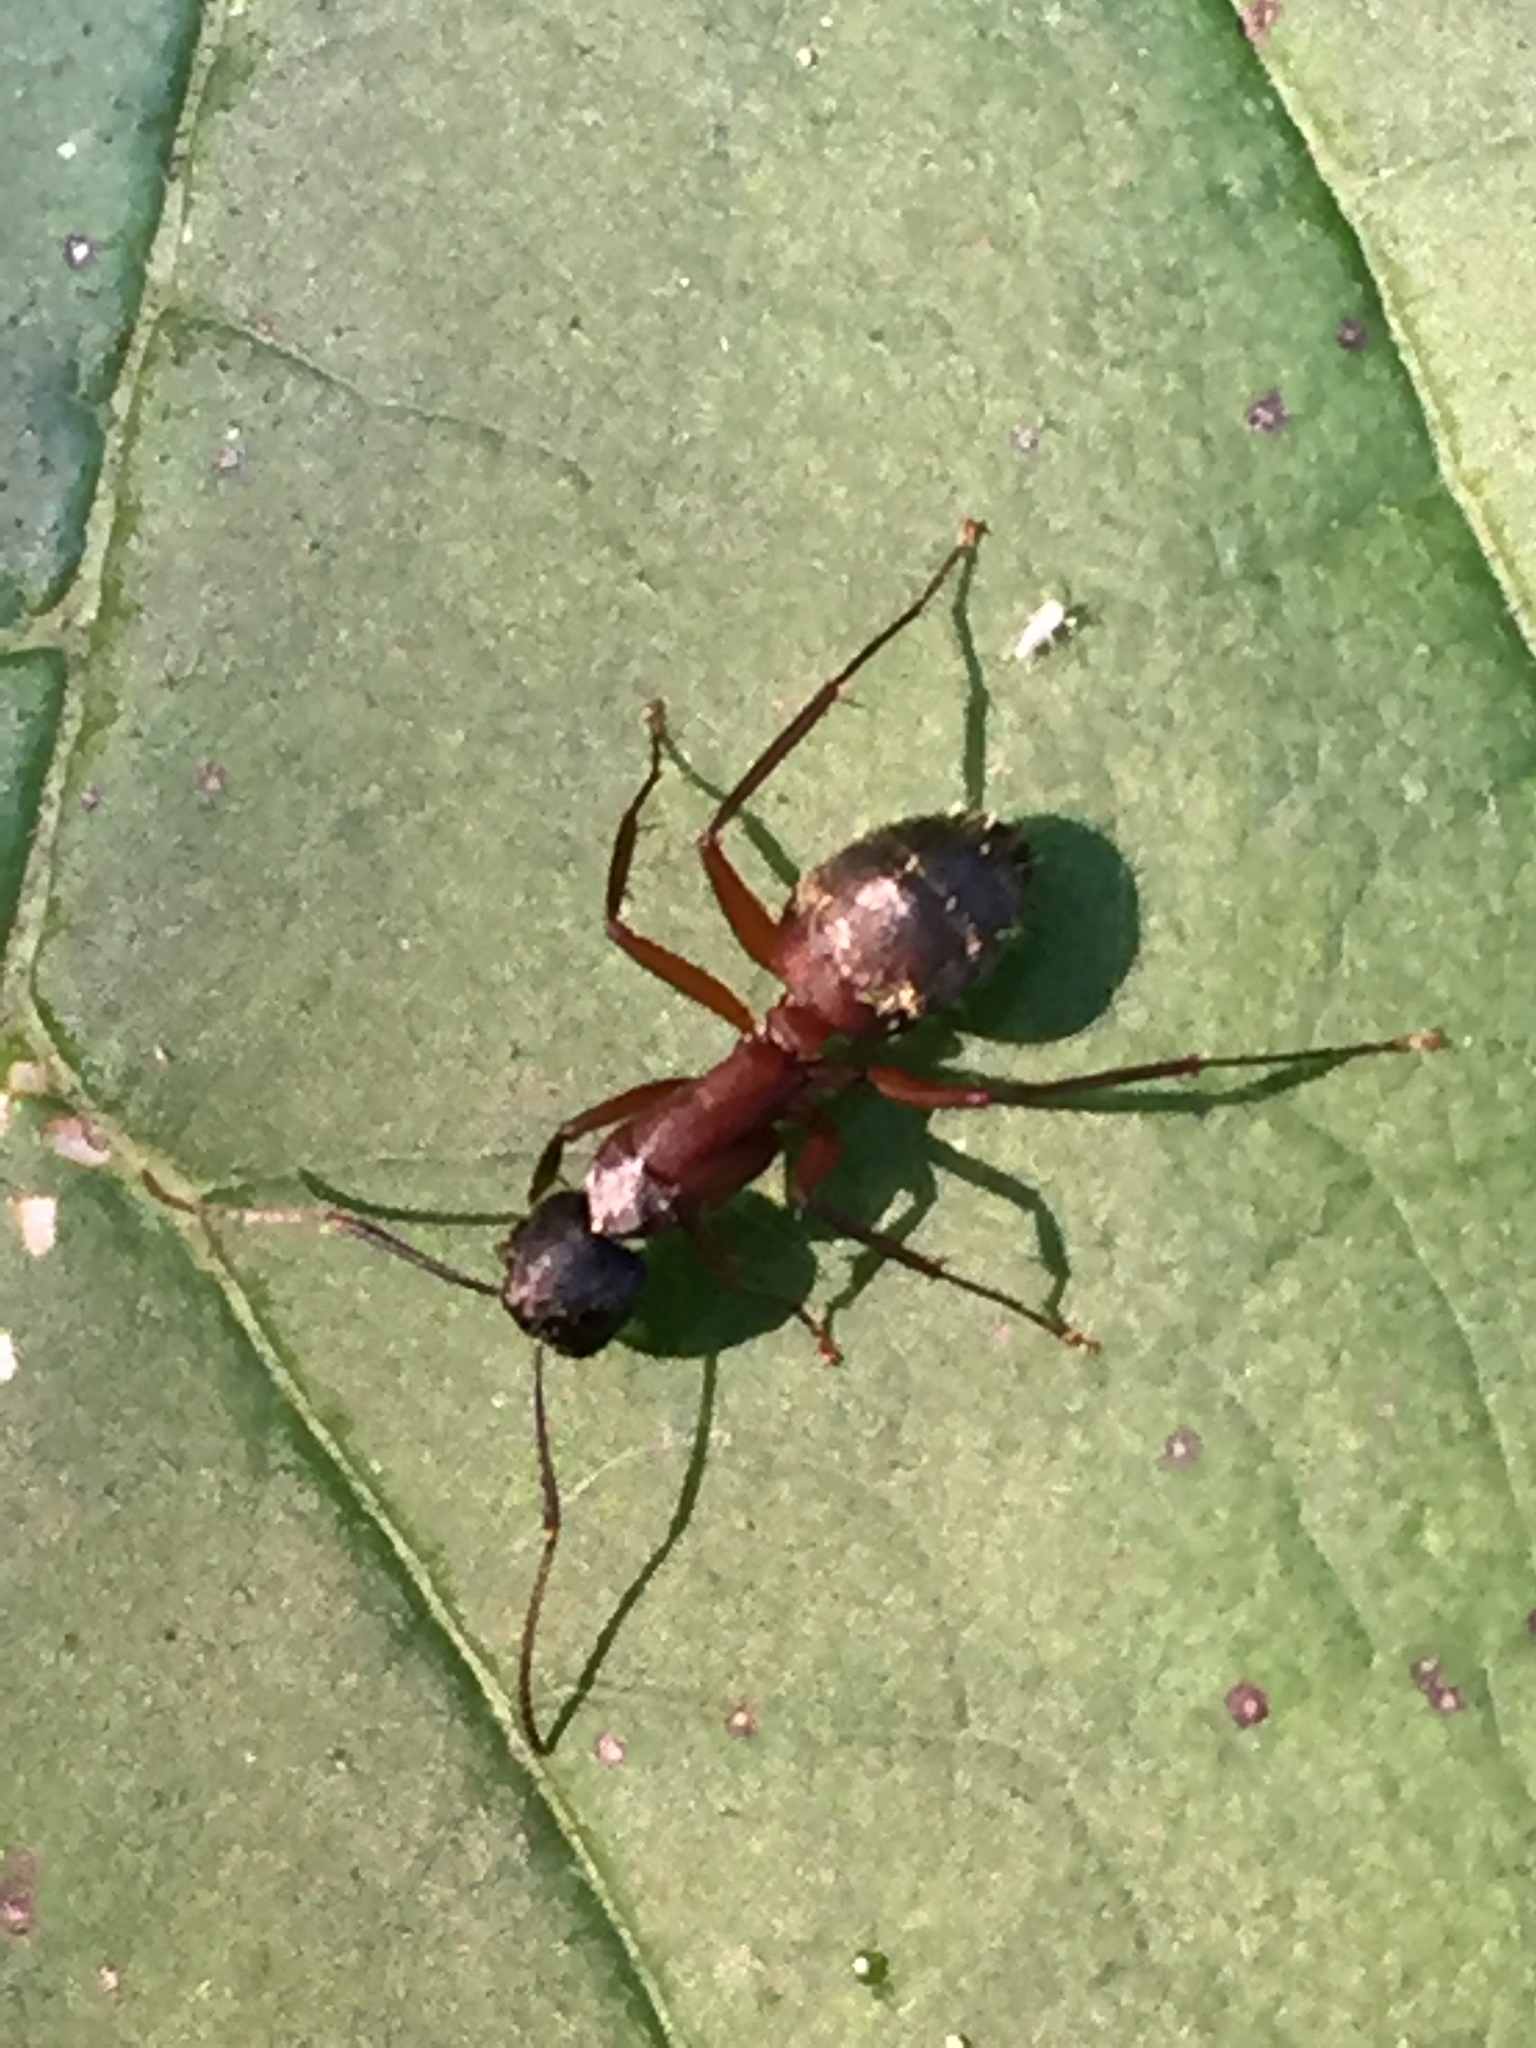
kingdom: Animalia
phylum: Arthropoda
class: Insecta
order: Hymenoptera
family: Formicidae
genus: Camponotus
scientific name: Camponotus chromaiodes
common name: Red carpenter ant
